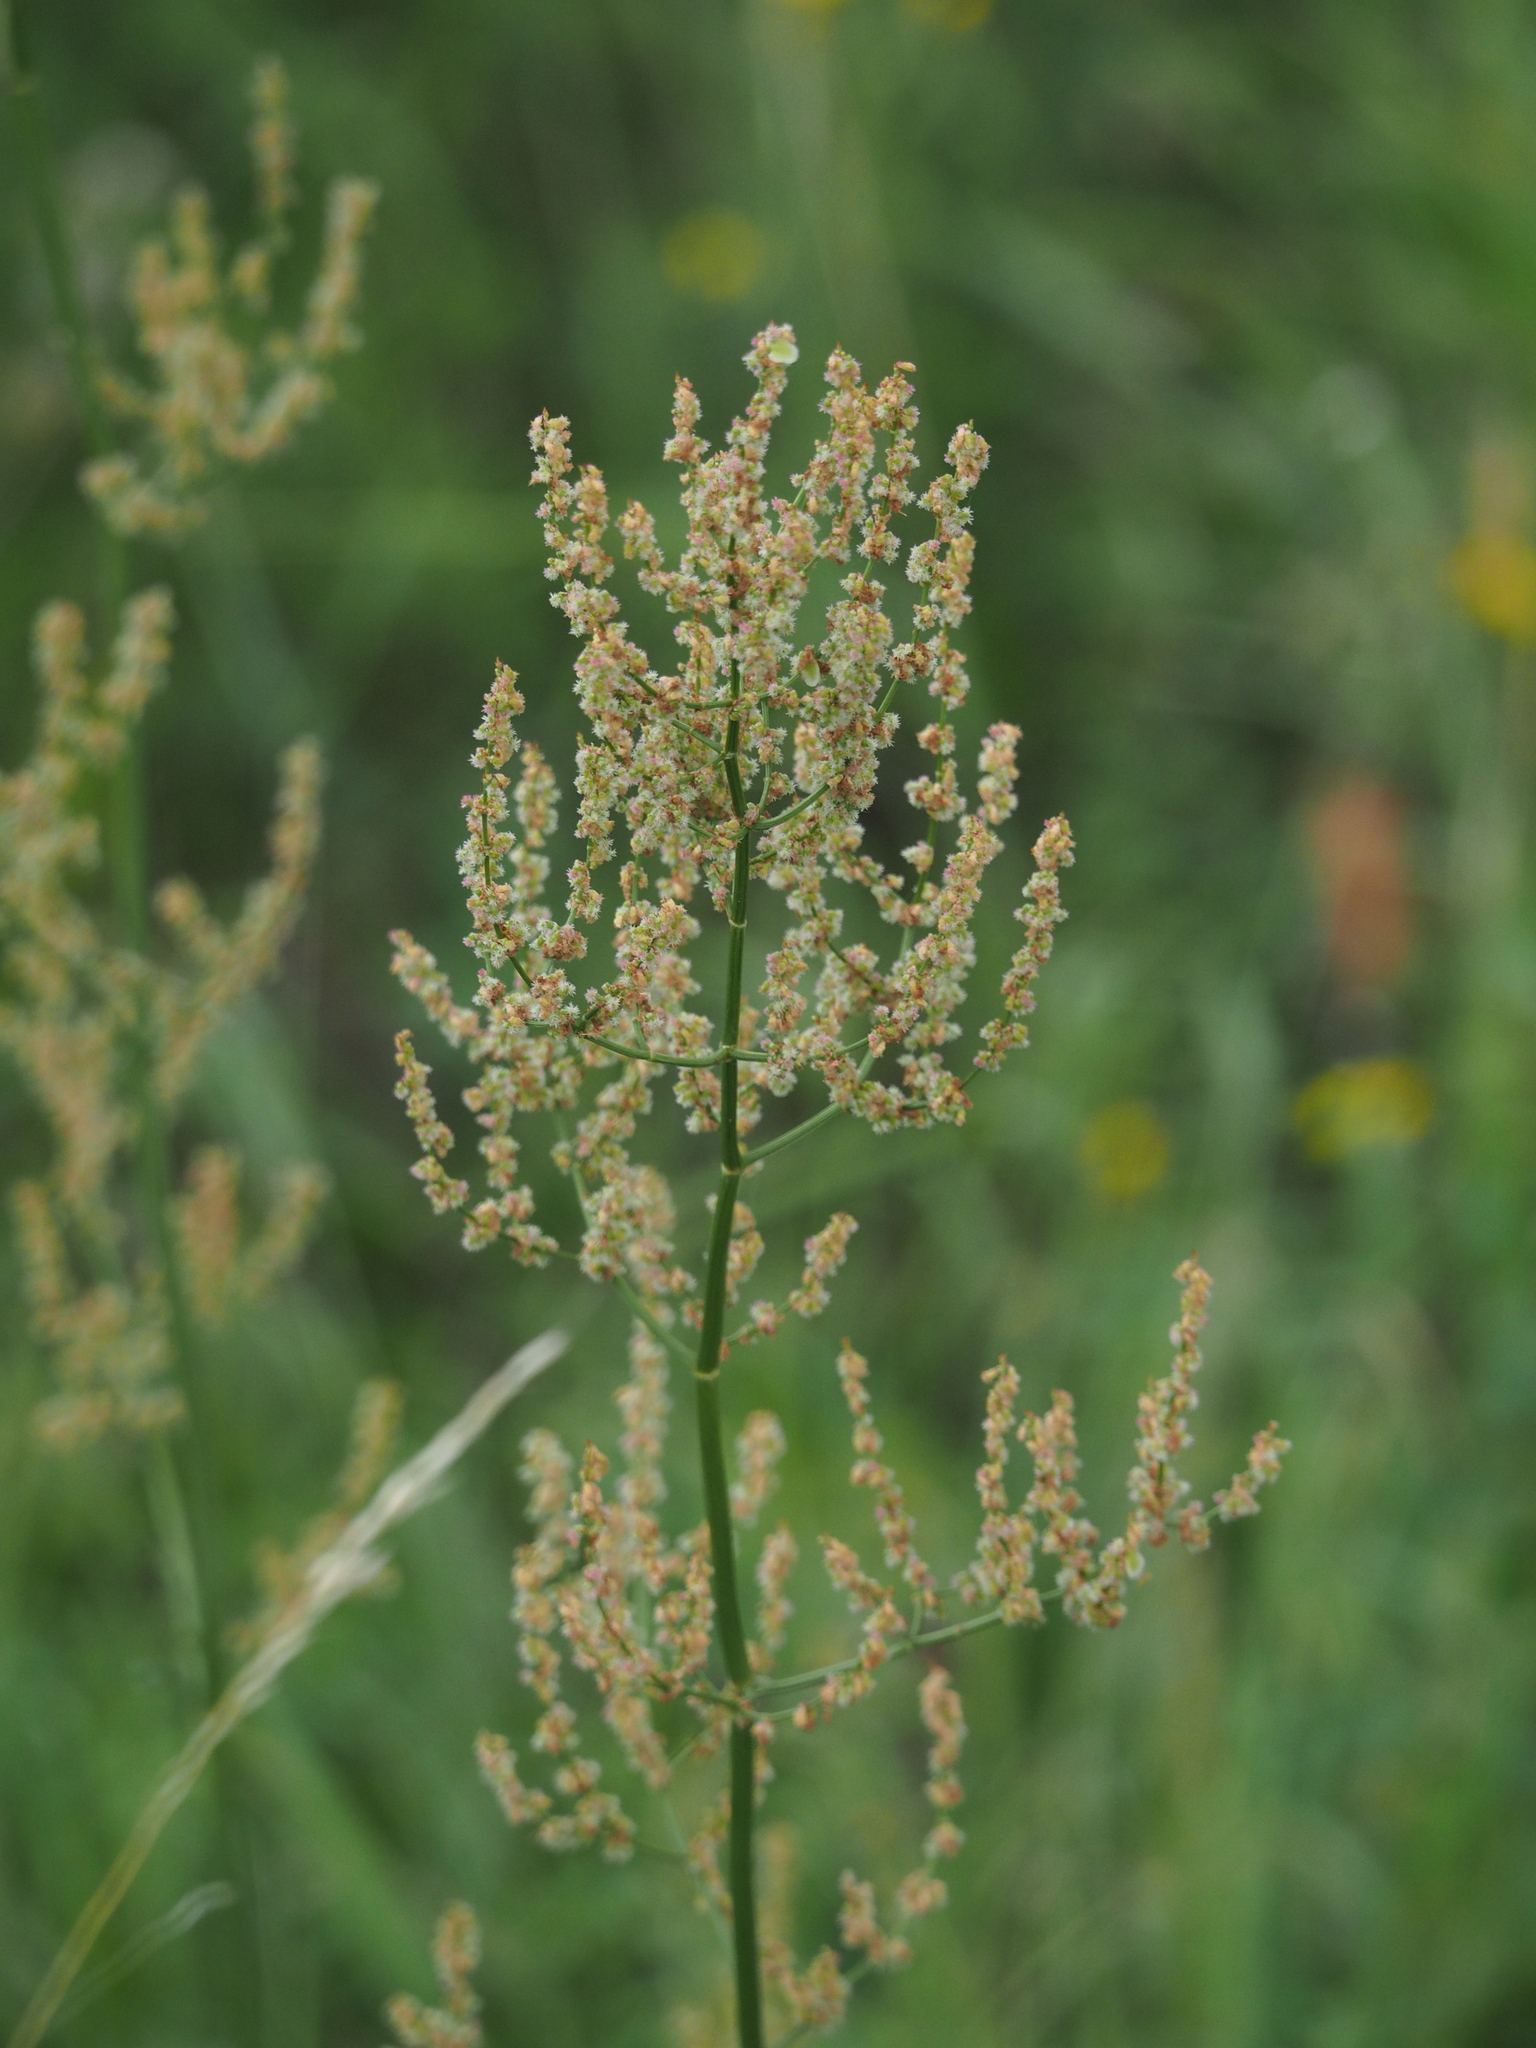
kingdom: Plantae
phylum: Tracheophyta
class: Magnoliopsida
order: Caryophyllales
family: Polygonaceae
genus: Rumex
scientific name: Rumex thyrsiflorus
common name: Garden sorrel
